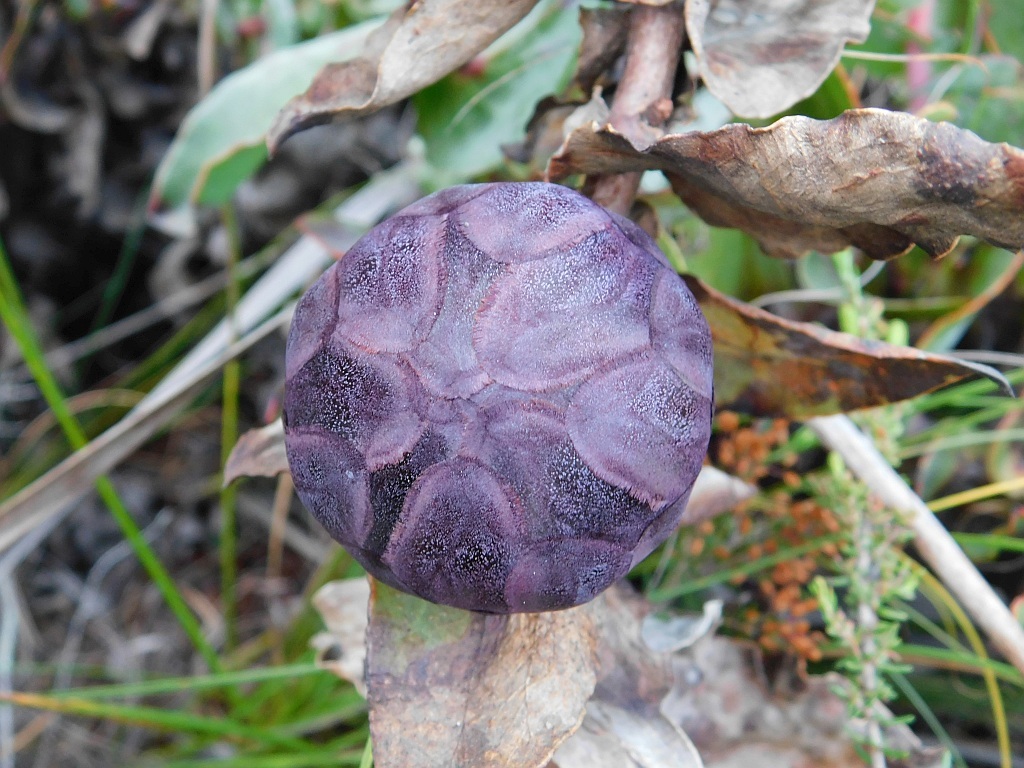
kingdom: Plantae
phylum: Tracheophyta
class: Magnoliopsida
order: Proteales
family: Proteaceae
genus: Protea
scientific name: Protea amplexicaulis
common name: Clasping-leaf sugarbush
